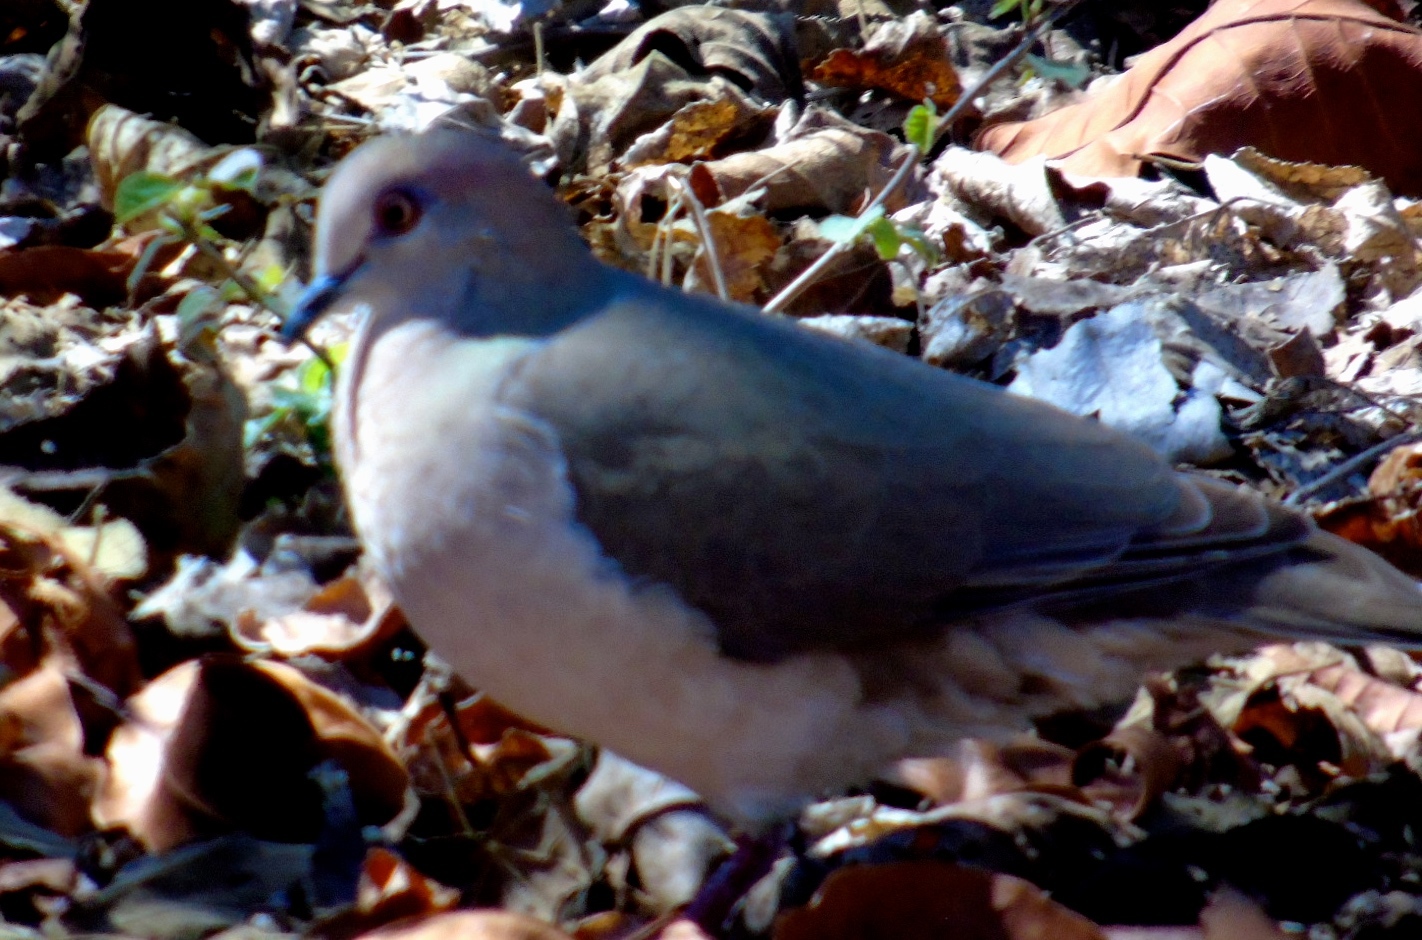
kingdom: Animalia
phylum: Chordata
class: Aves
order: Columbiformes
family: Columbidae
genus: Leptotila
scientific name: Leptotila verreauxi
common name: White-tipped dove
